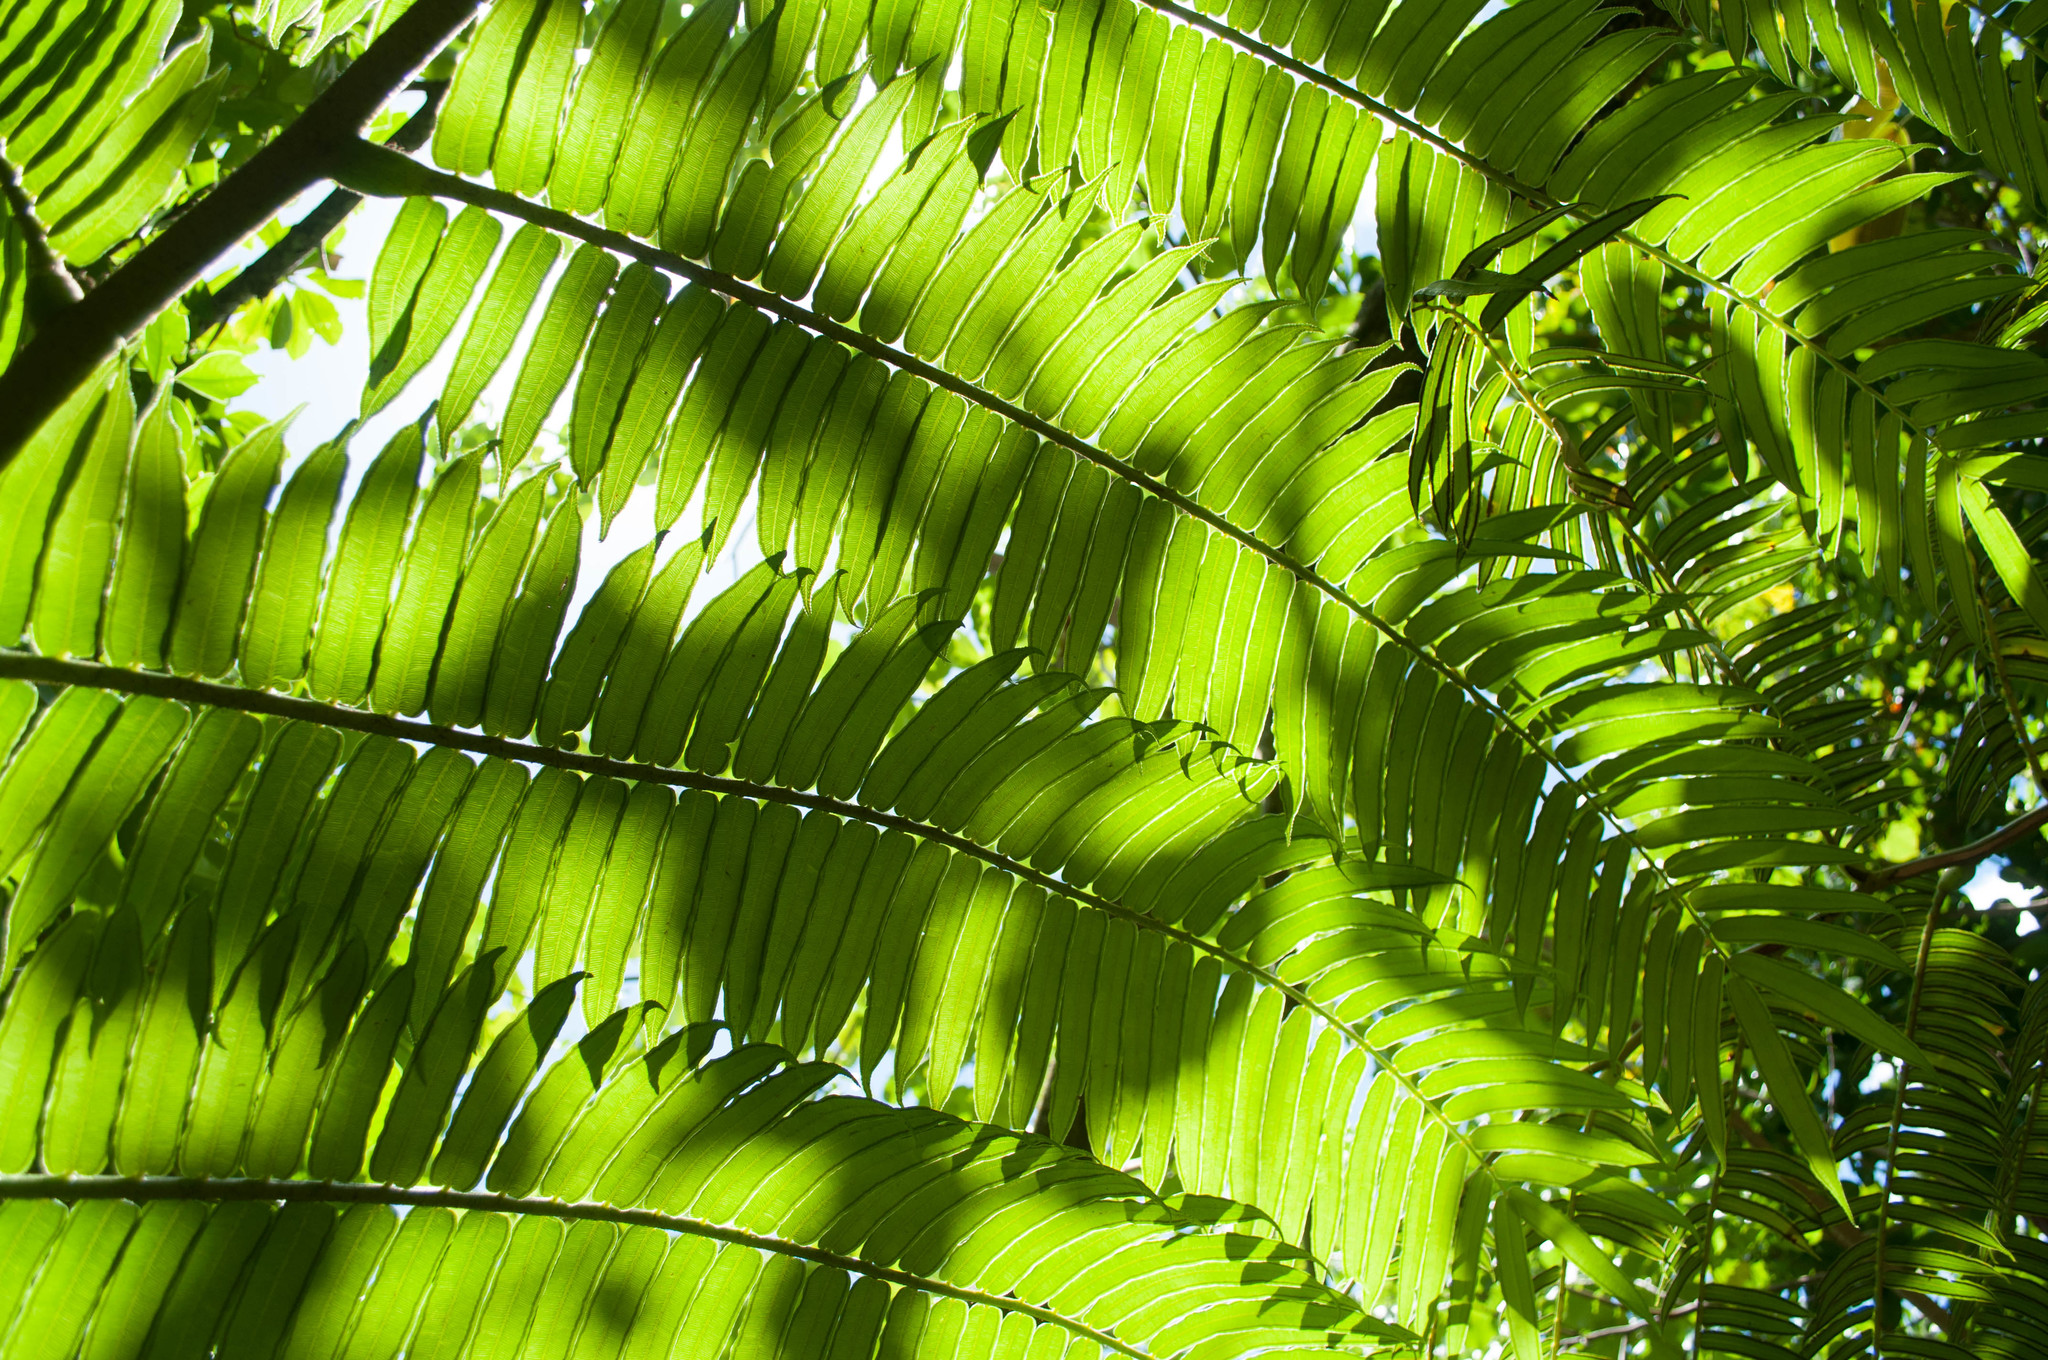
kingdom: Plantae
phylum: Tracheophyta
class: Polypodiopsida
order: Marattiales
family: Marattiaceae
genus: Angiopteris
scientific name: Angiopteris evecta
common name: Mule's-foot fern
